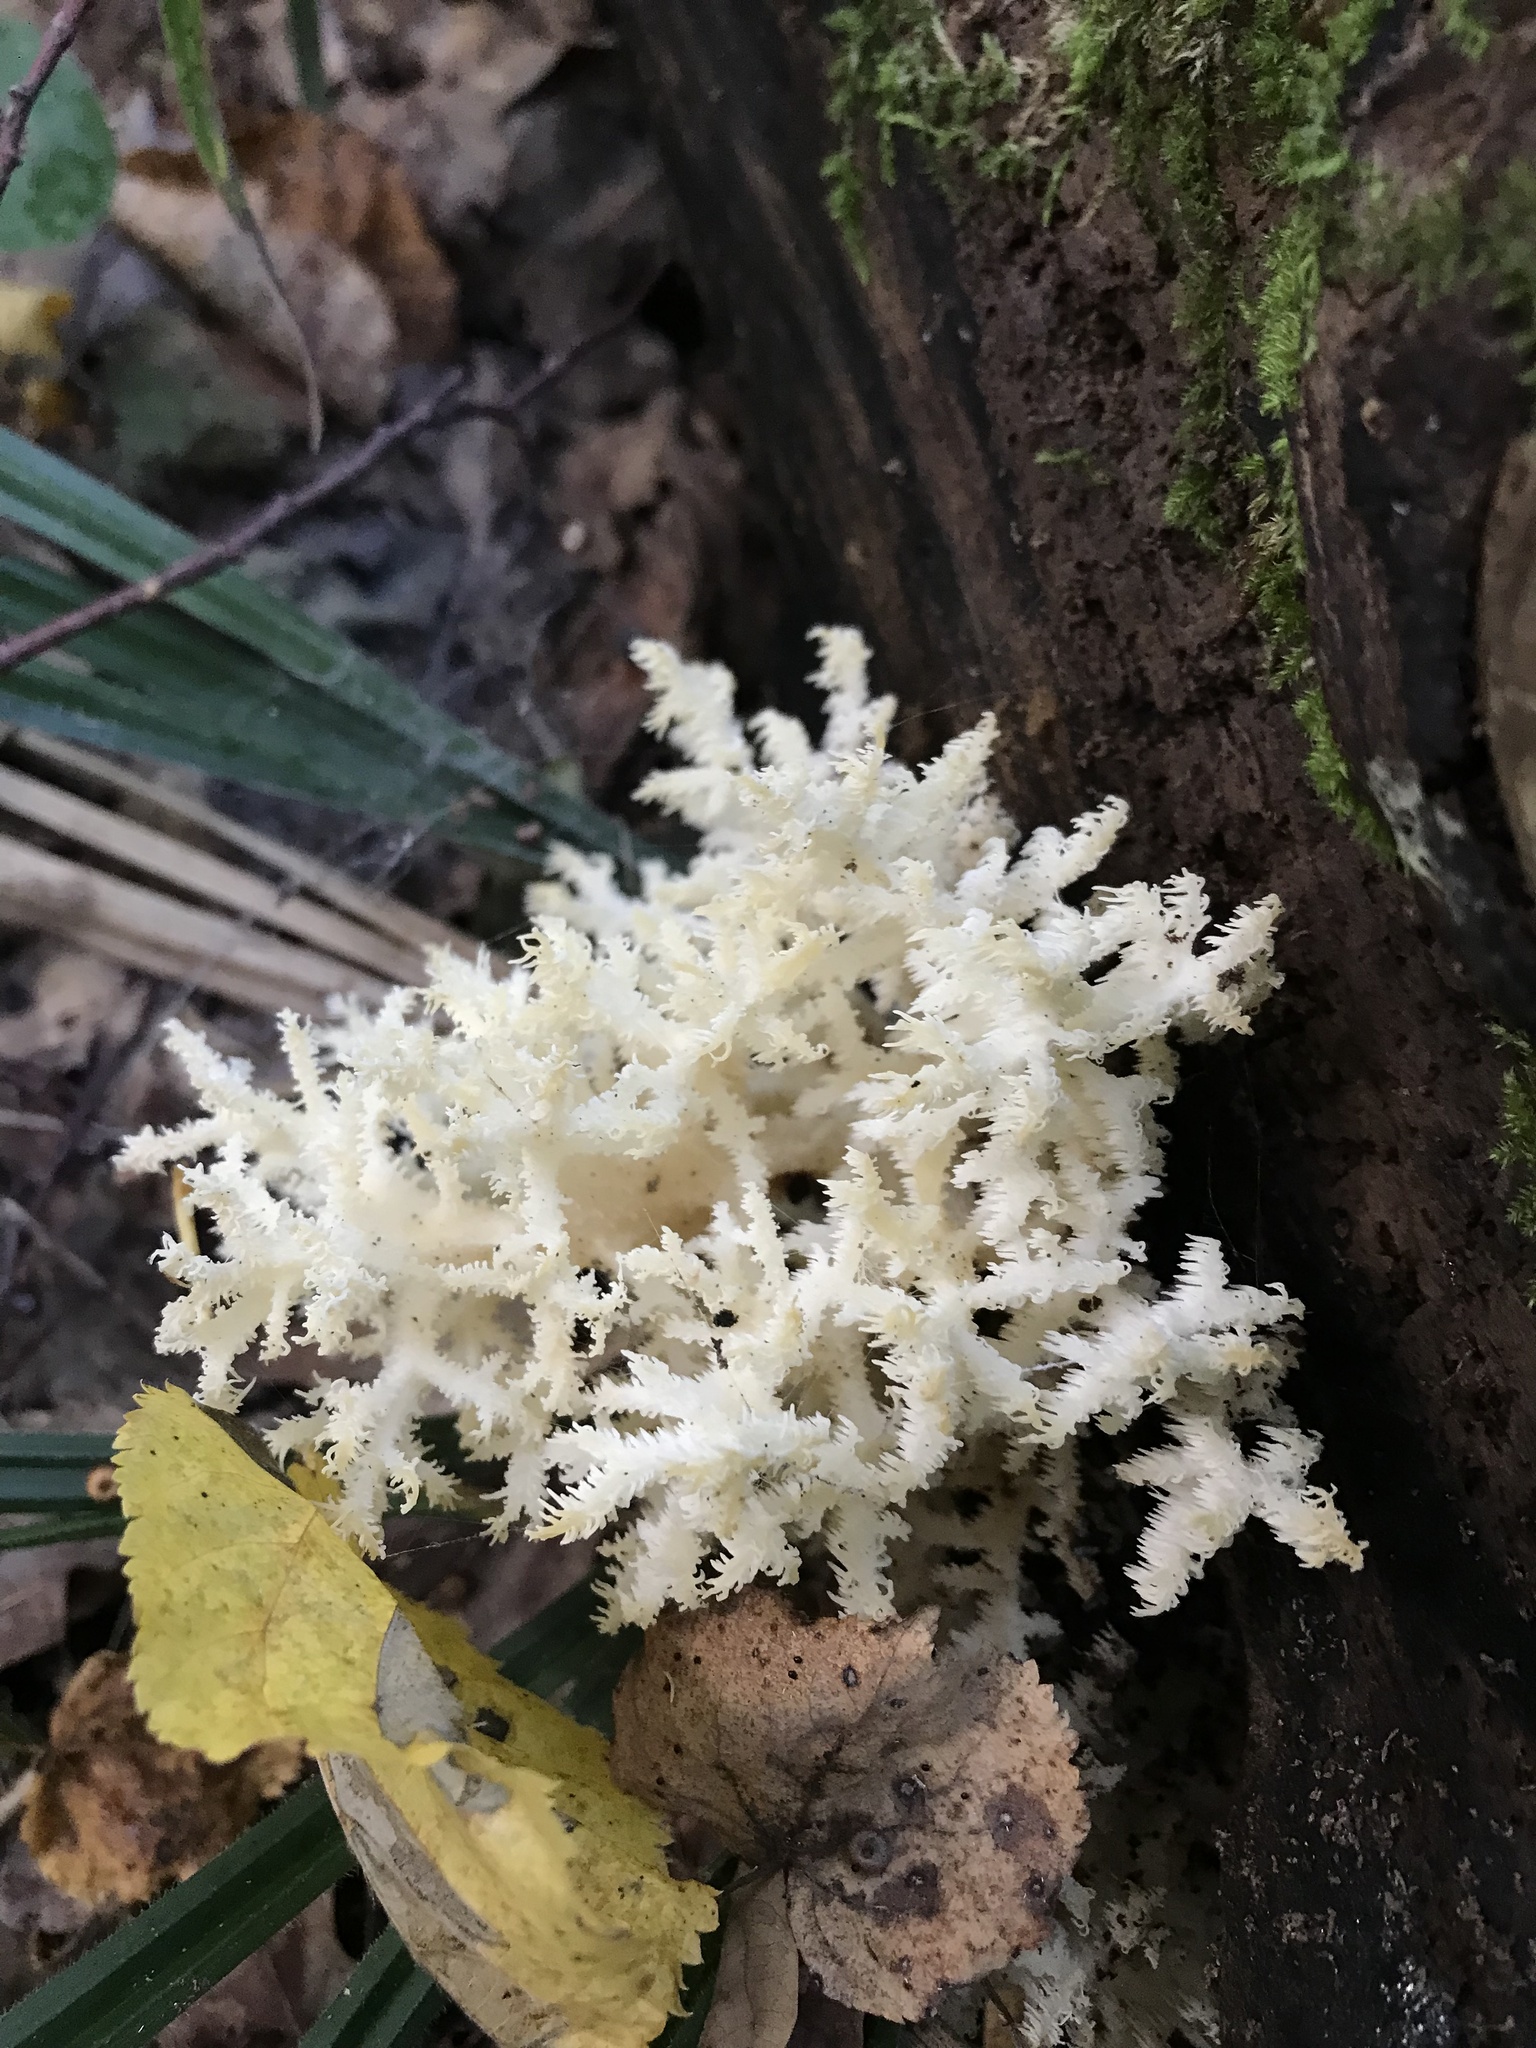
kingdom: Fungi
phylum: Basidiomycota
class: Agaricomycetes
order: Russulales
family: Hericiaceae
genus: Hericium
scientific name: Hericium coralloides
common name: Coral tooth
